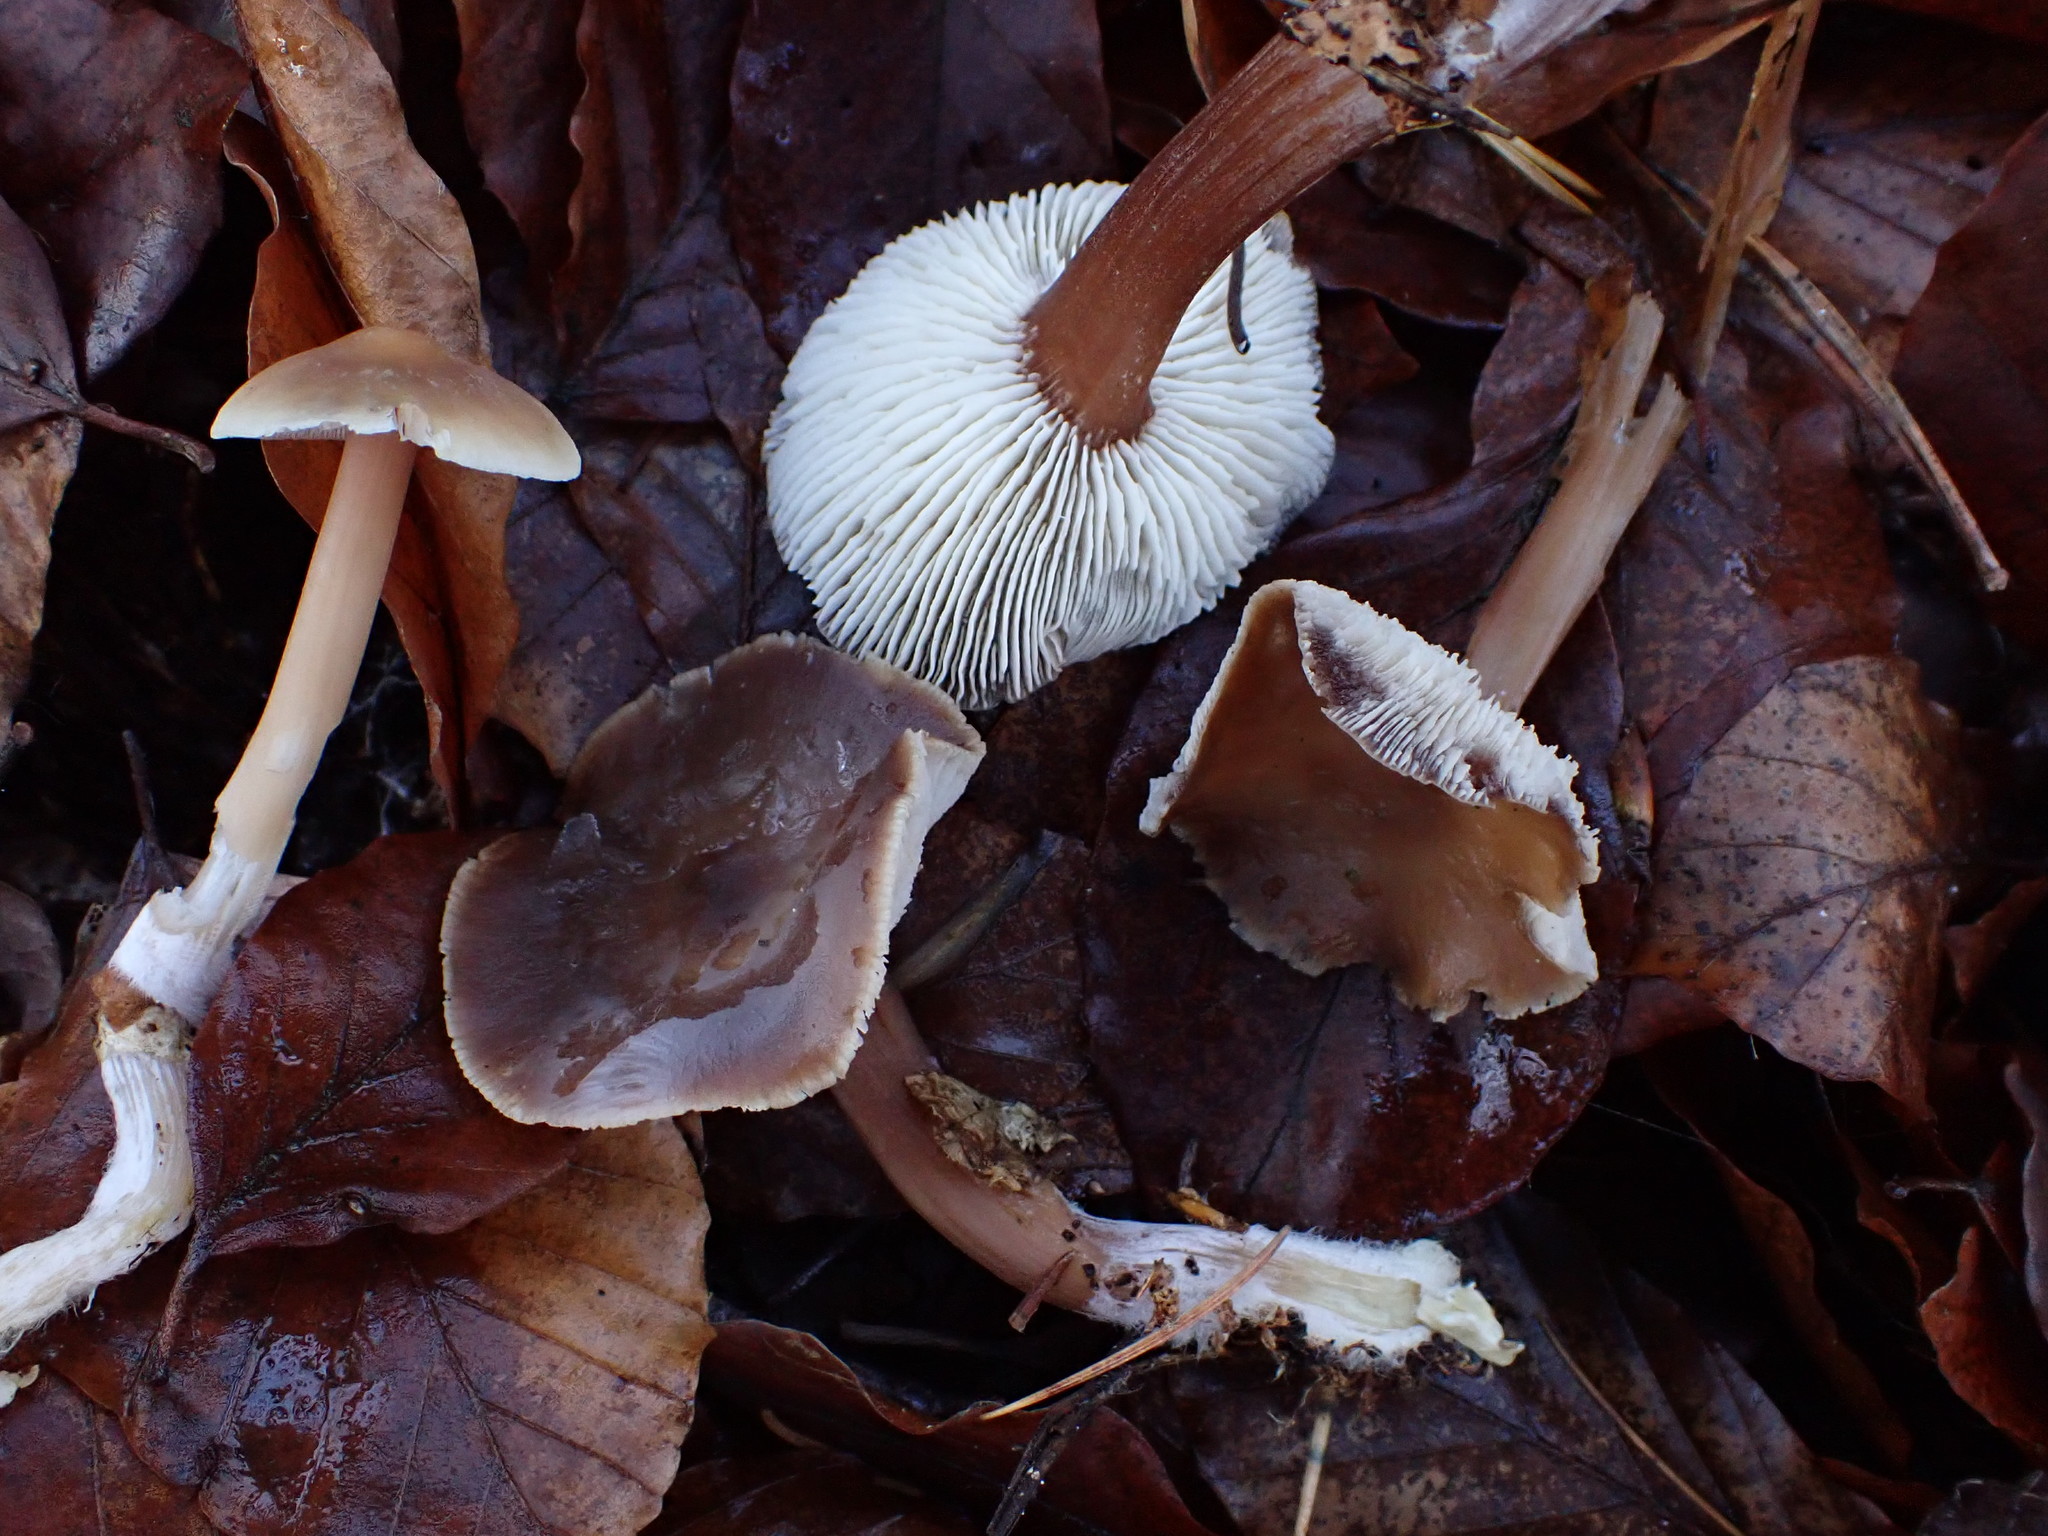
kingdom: Fungi
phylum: Basidiomycota
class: Agaricomycetes
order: Agaricales
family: Omphalotaceae
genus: Rhodocollybia
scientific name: Rhodocollybia butyracea
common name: Butter cap
